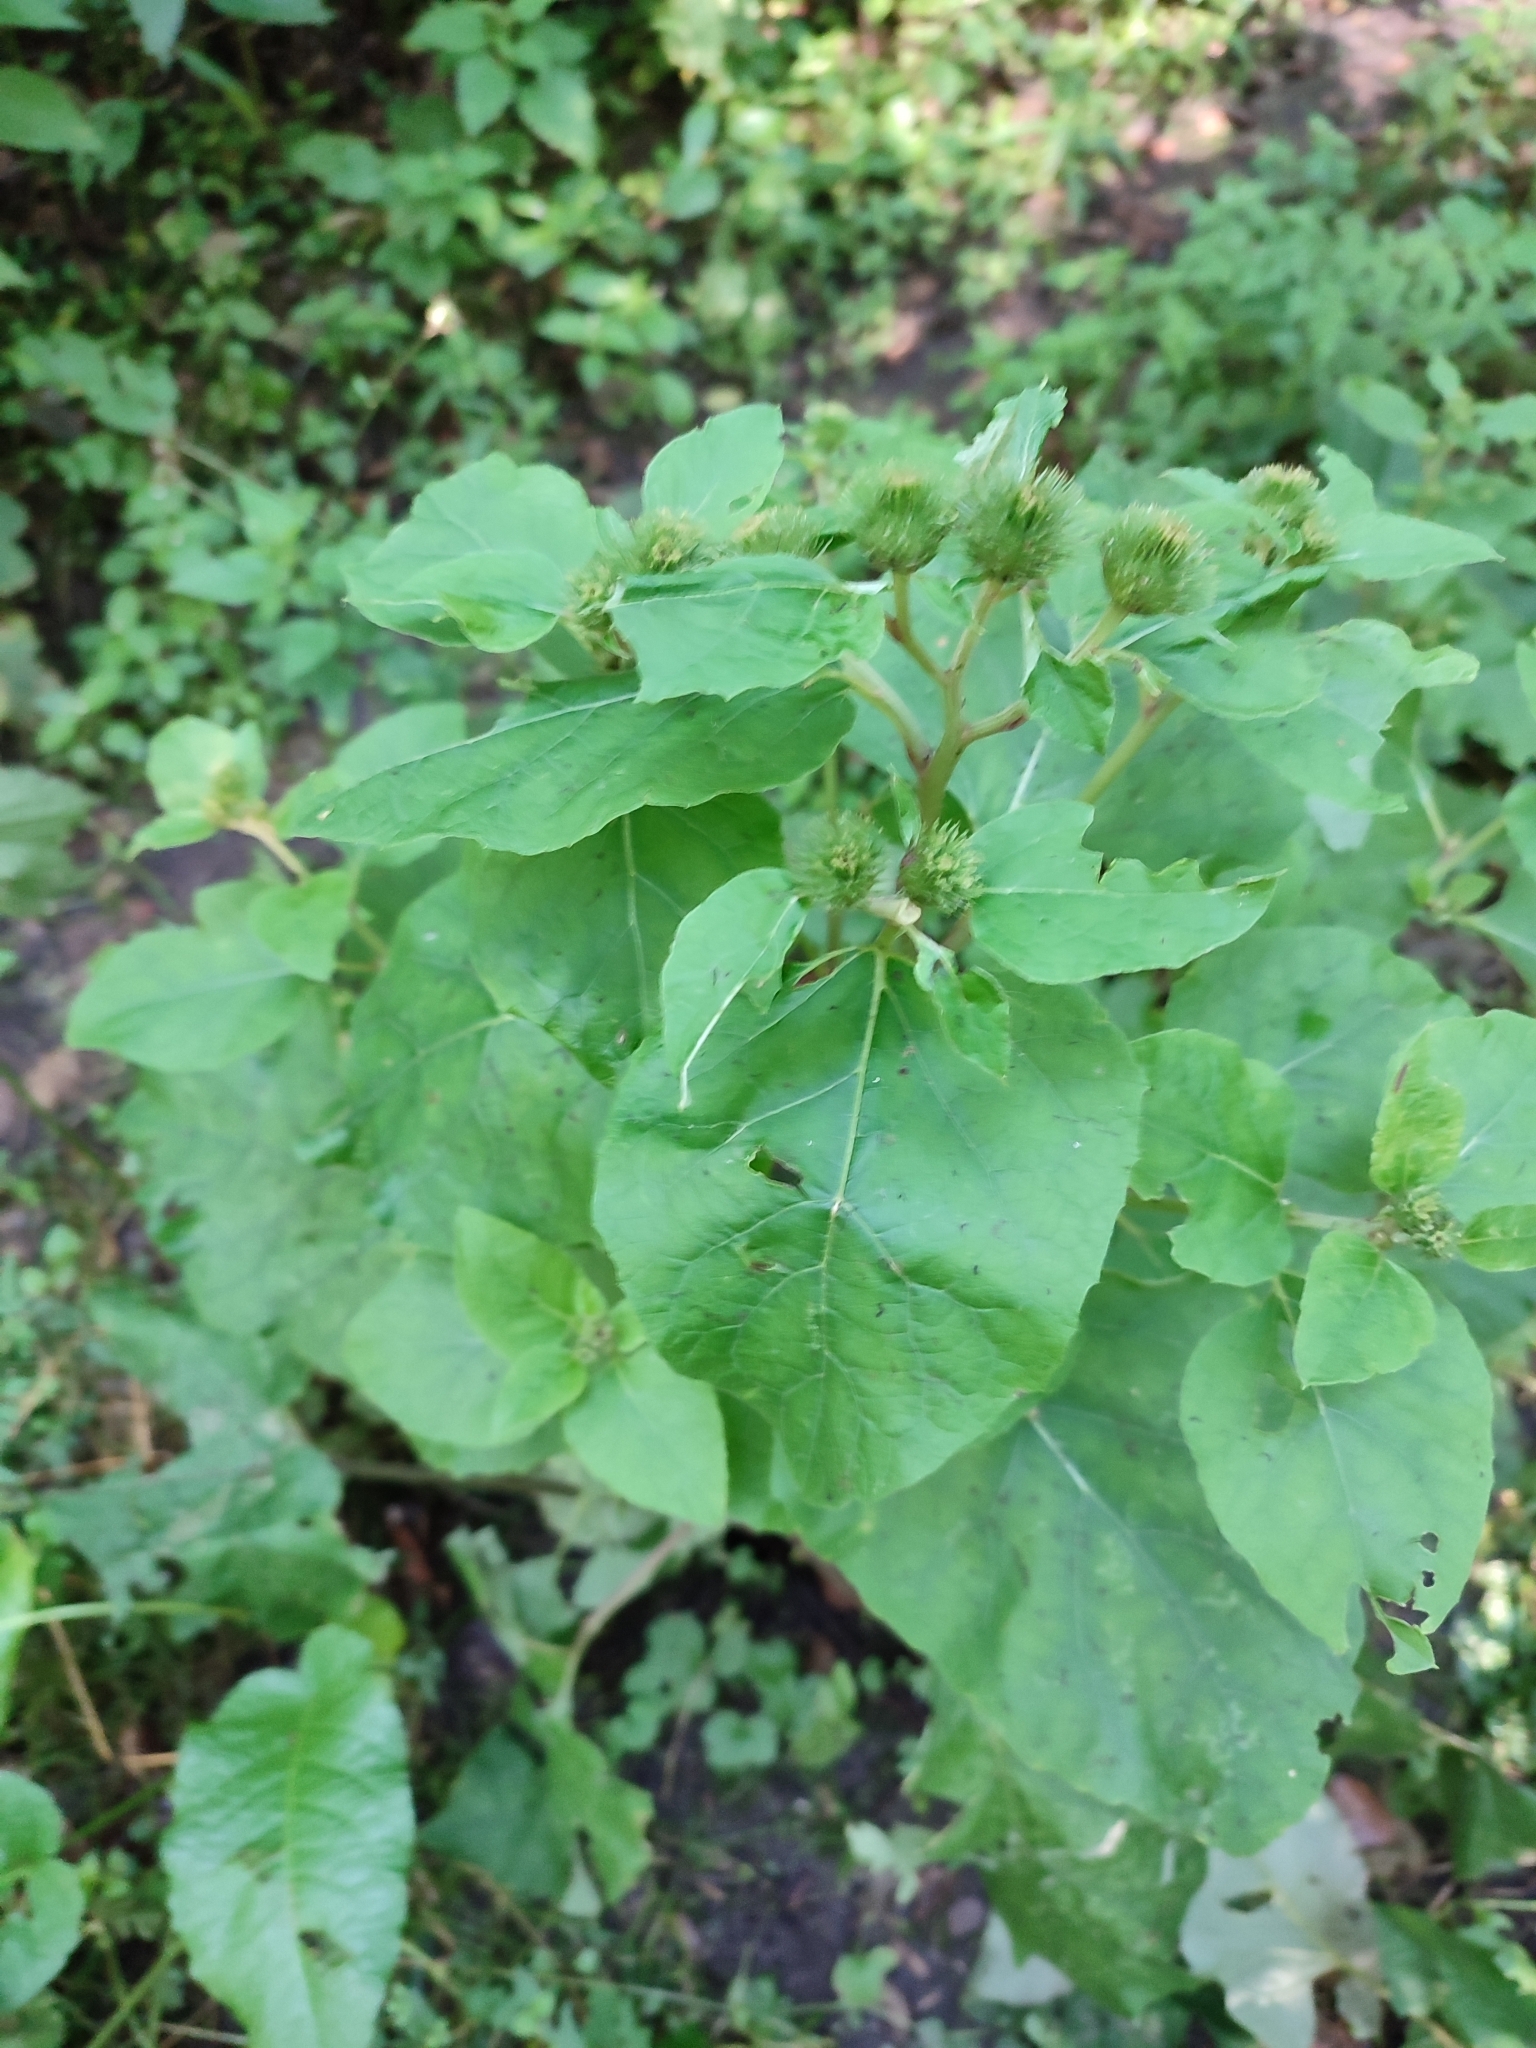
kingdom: Plantae
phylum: Tracheophyta
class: Magnoliopsida
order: Asterales
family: Asteraceae
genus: Arctium
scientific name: Arctium lappa
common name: Greater burdock
